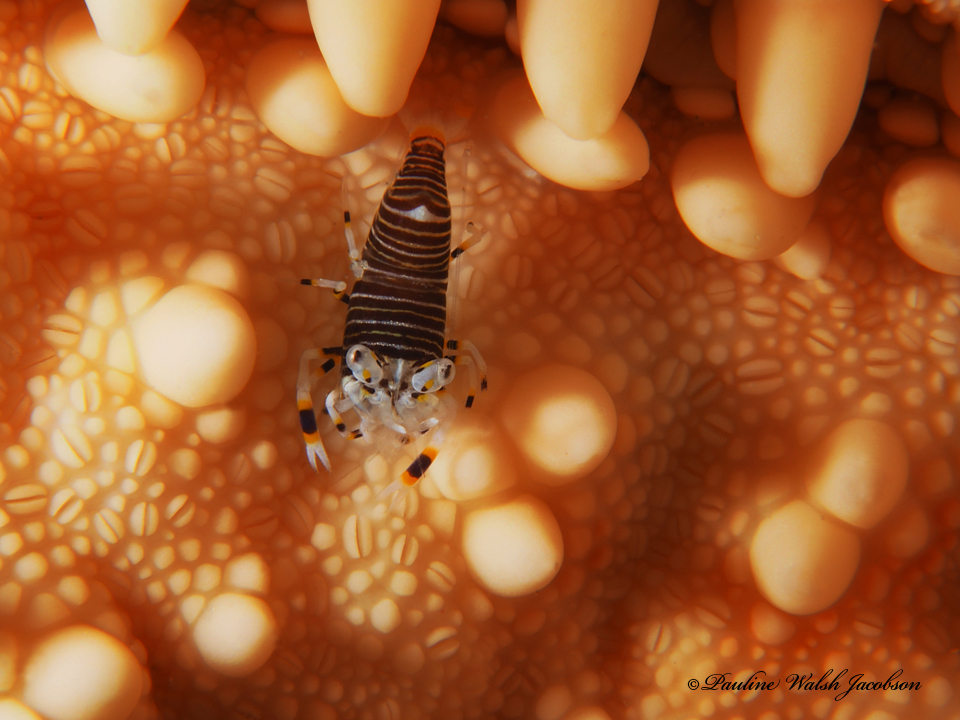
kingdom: Animalia
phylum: Arthropoda
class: Malacostraca
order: Decapoda
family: Palaemonidae
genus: Gnathophyllum
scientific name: Gnathophyllum americanum
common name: Bumblebee shrimp
